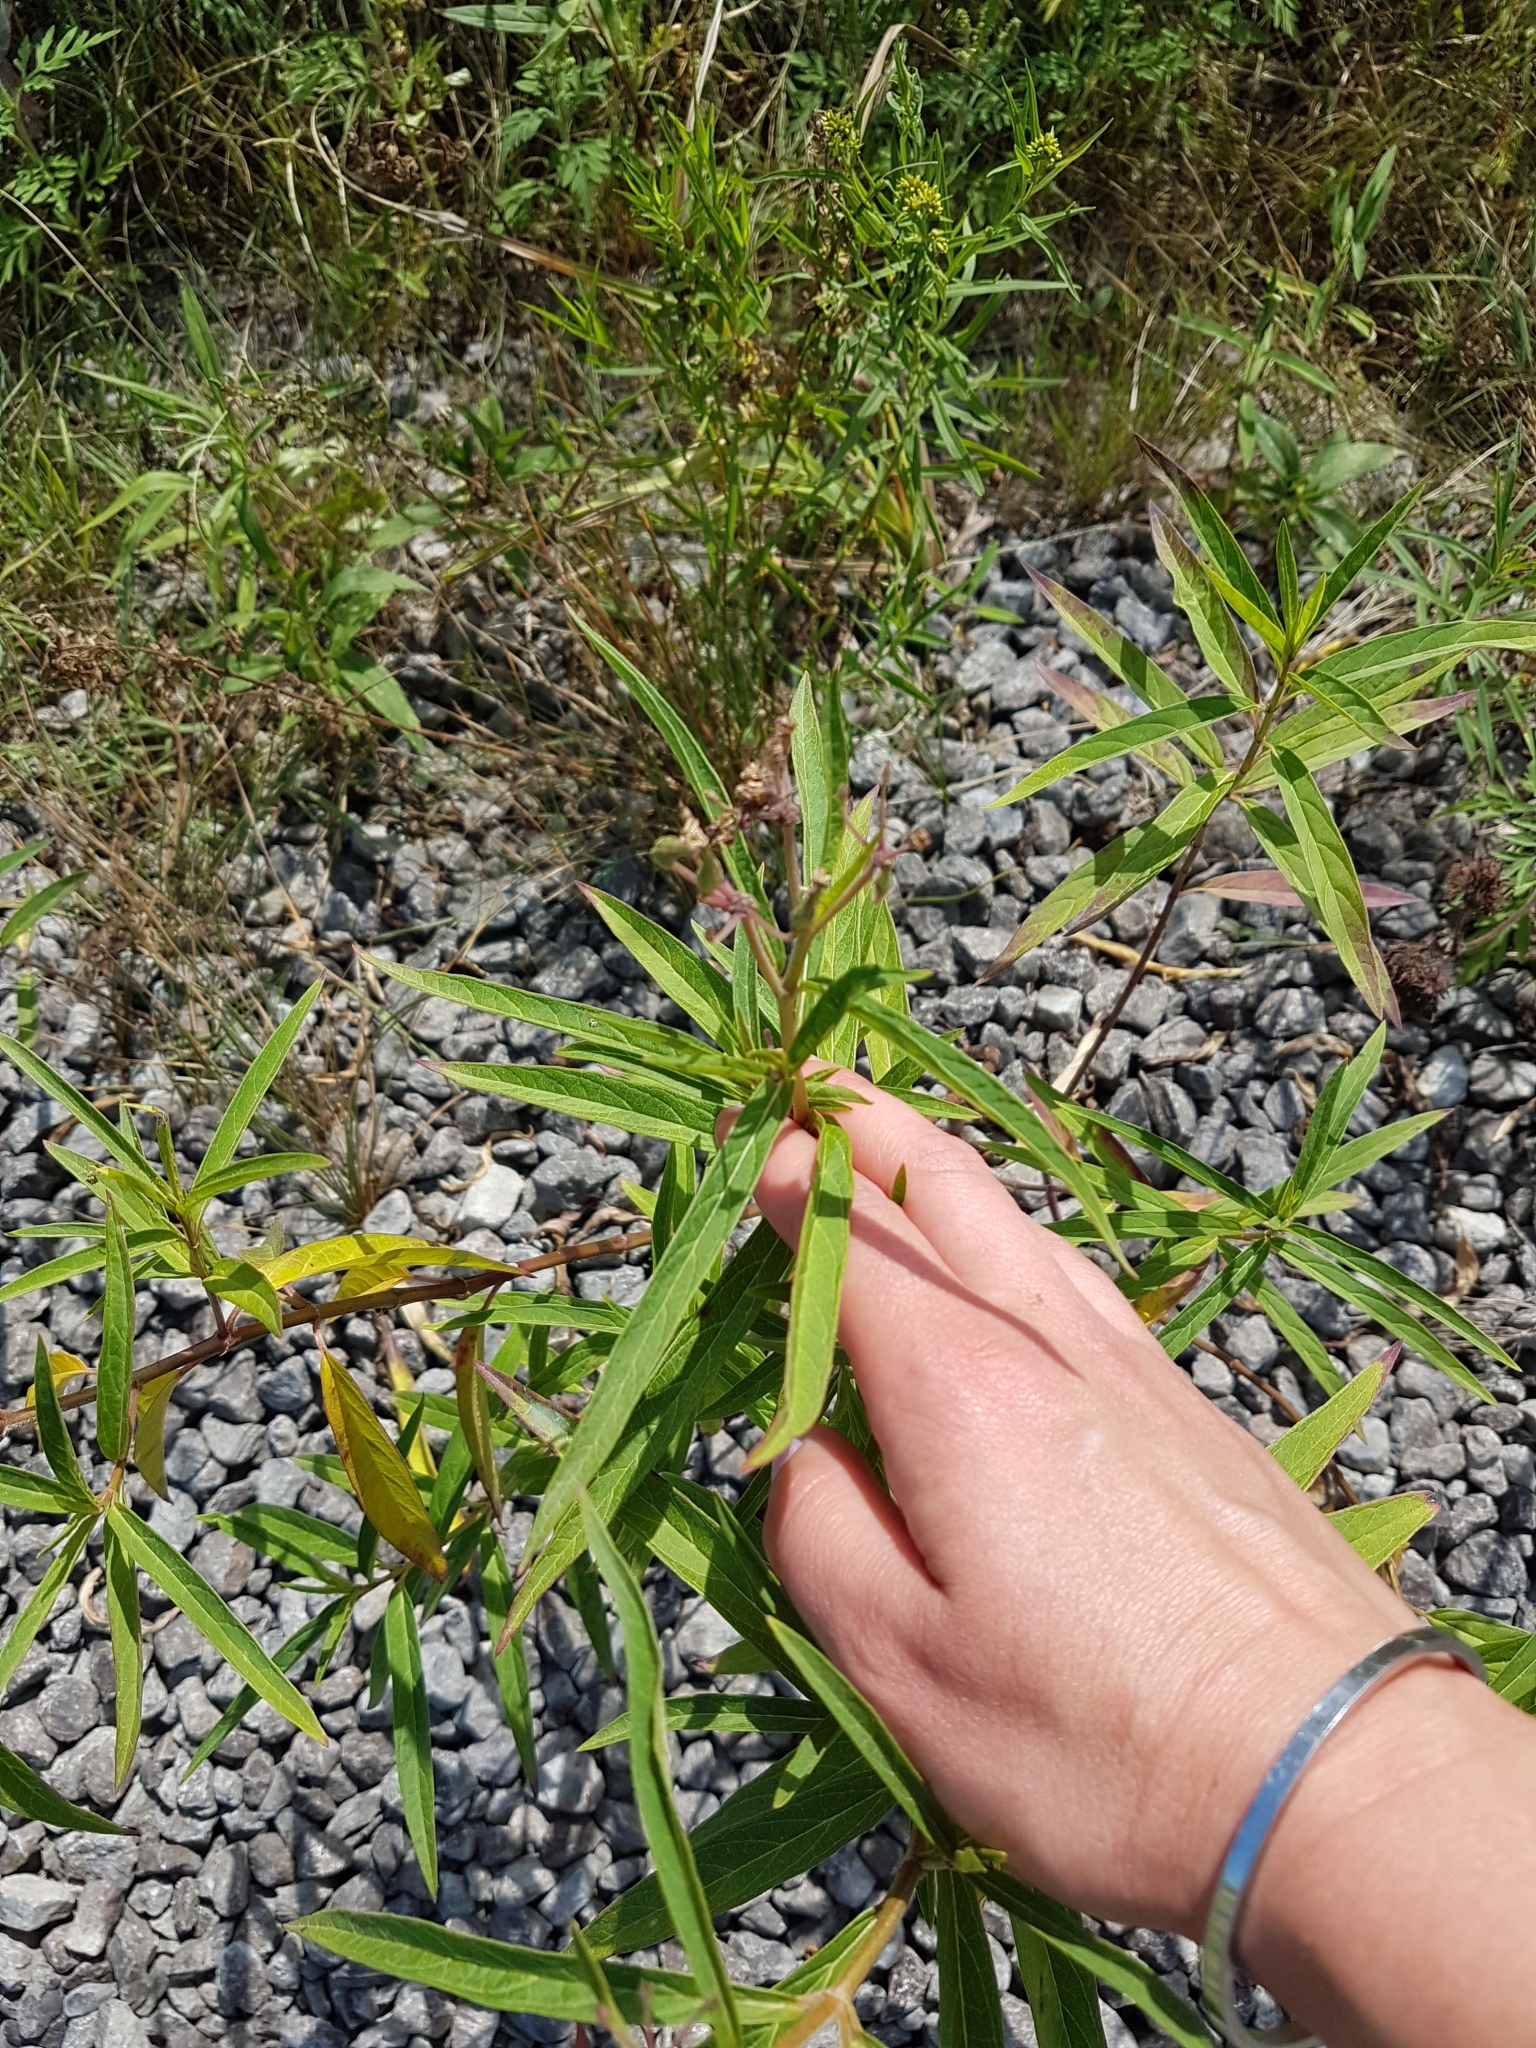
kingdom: Plantae
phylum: Tracheophyta
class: Magnoliopsida
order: Gentianales
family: Apocynaceae
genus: Asclepias
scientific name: Asclepias incarnata
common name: Swamp milkweed
